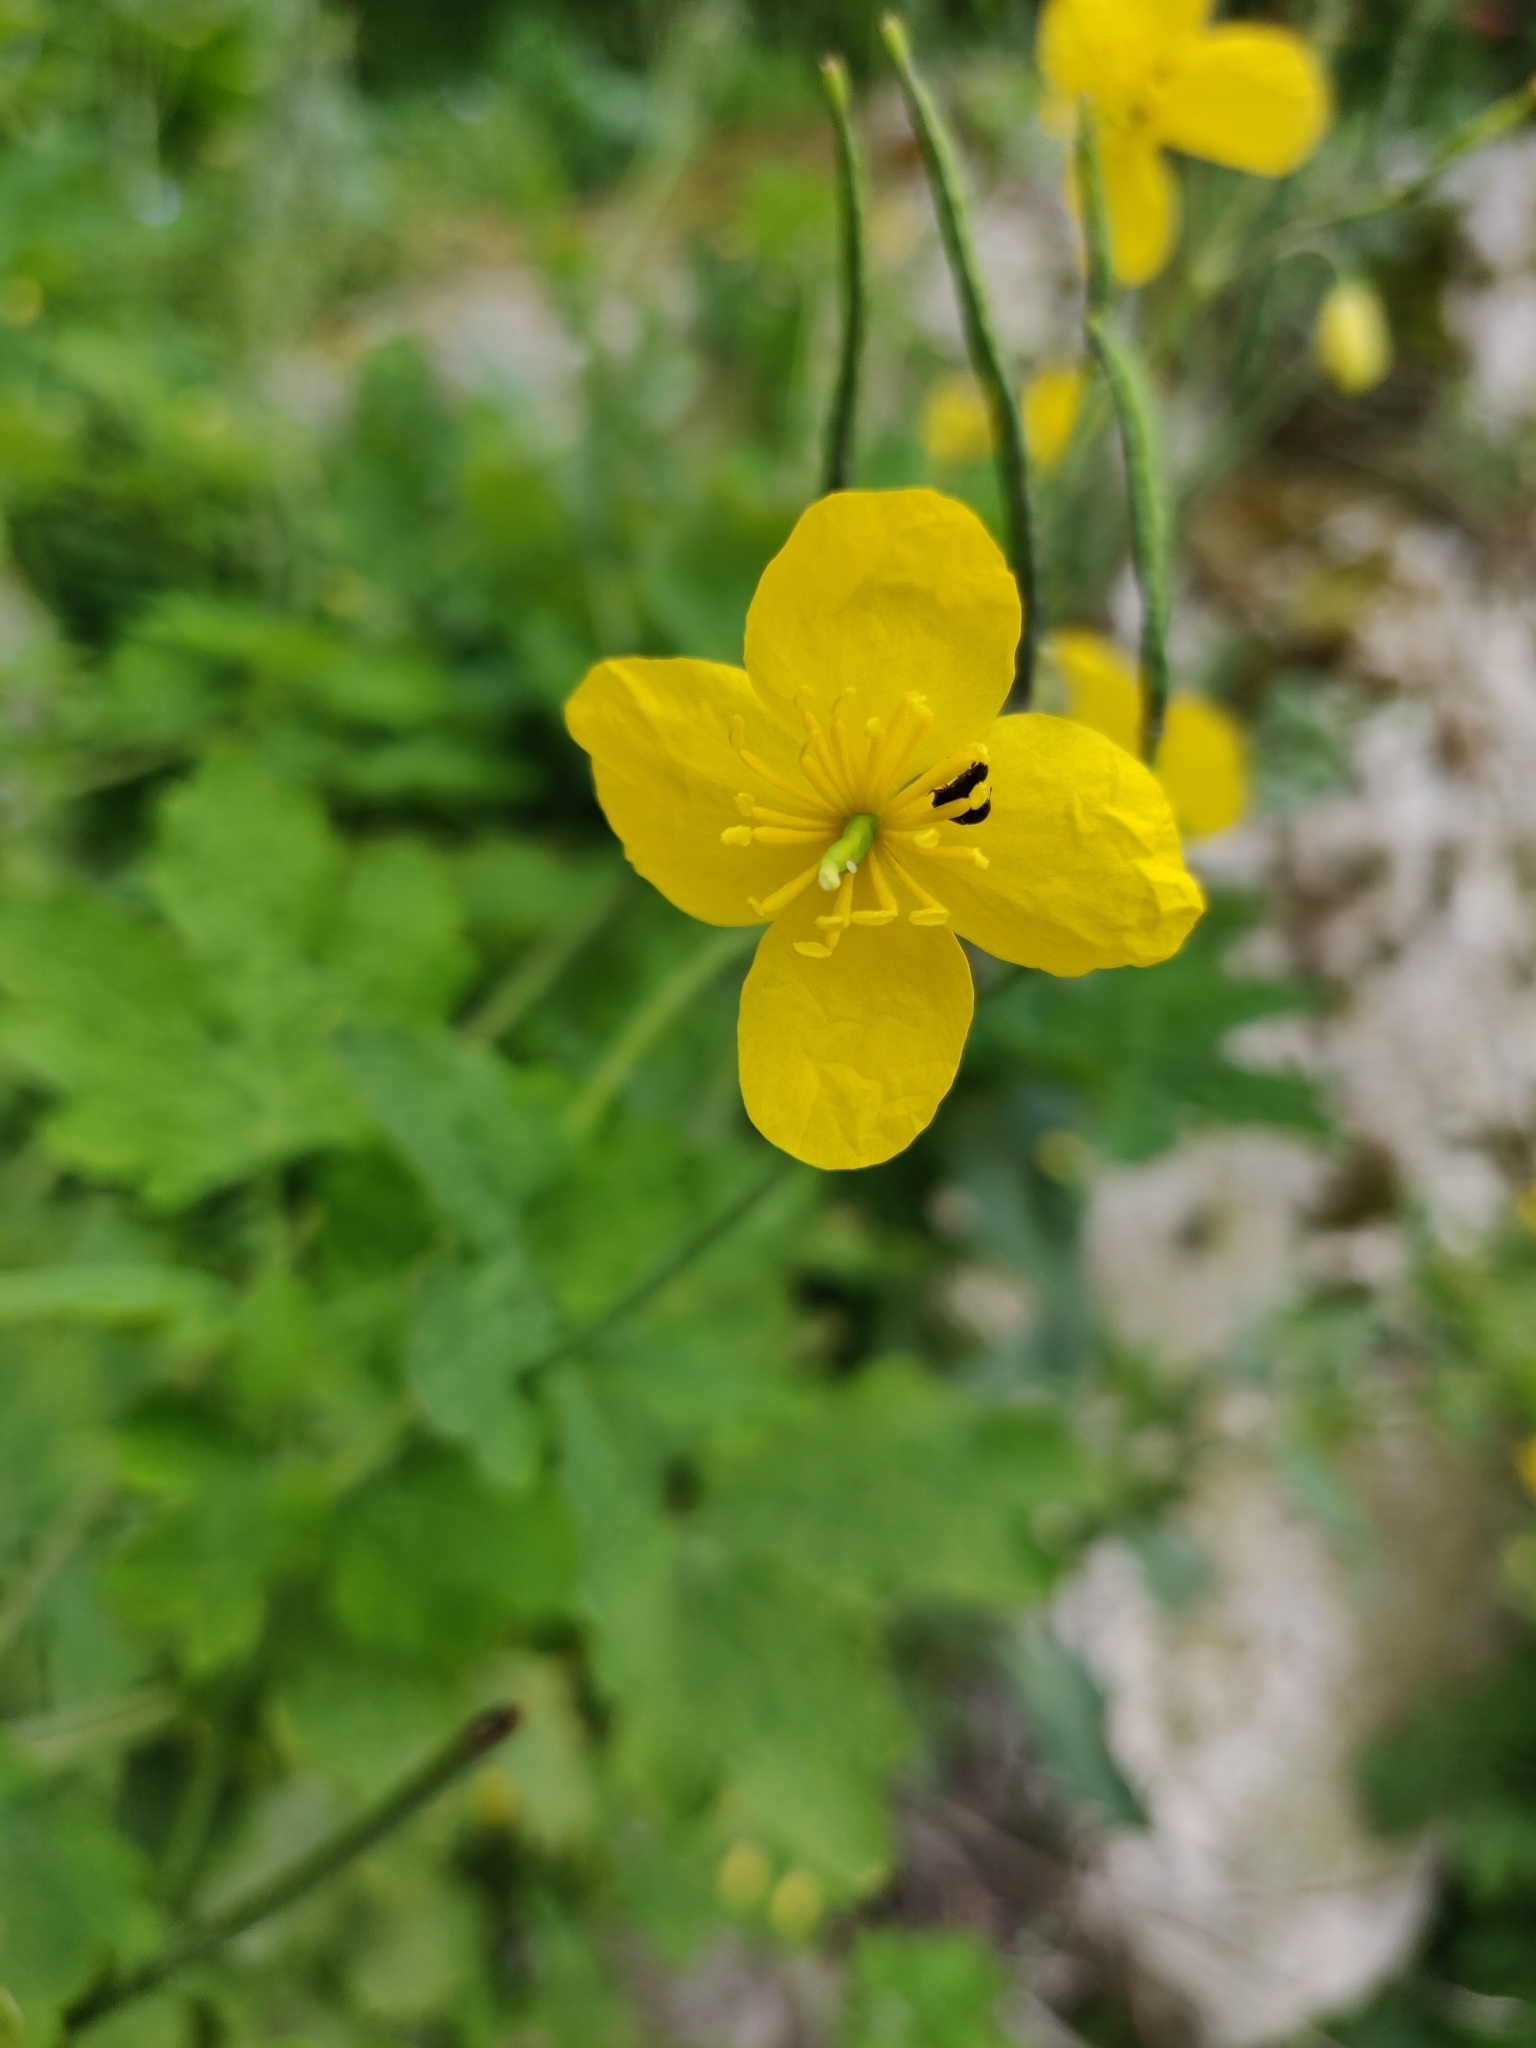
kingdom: Plantae
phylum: Tracheophyta
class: Magnoliopsida
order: Ranunculales
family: Papaveraceae
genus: Chelidonium
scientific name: Chelidonium majus
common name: Greater celandine
